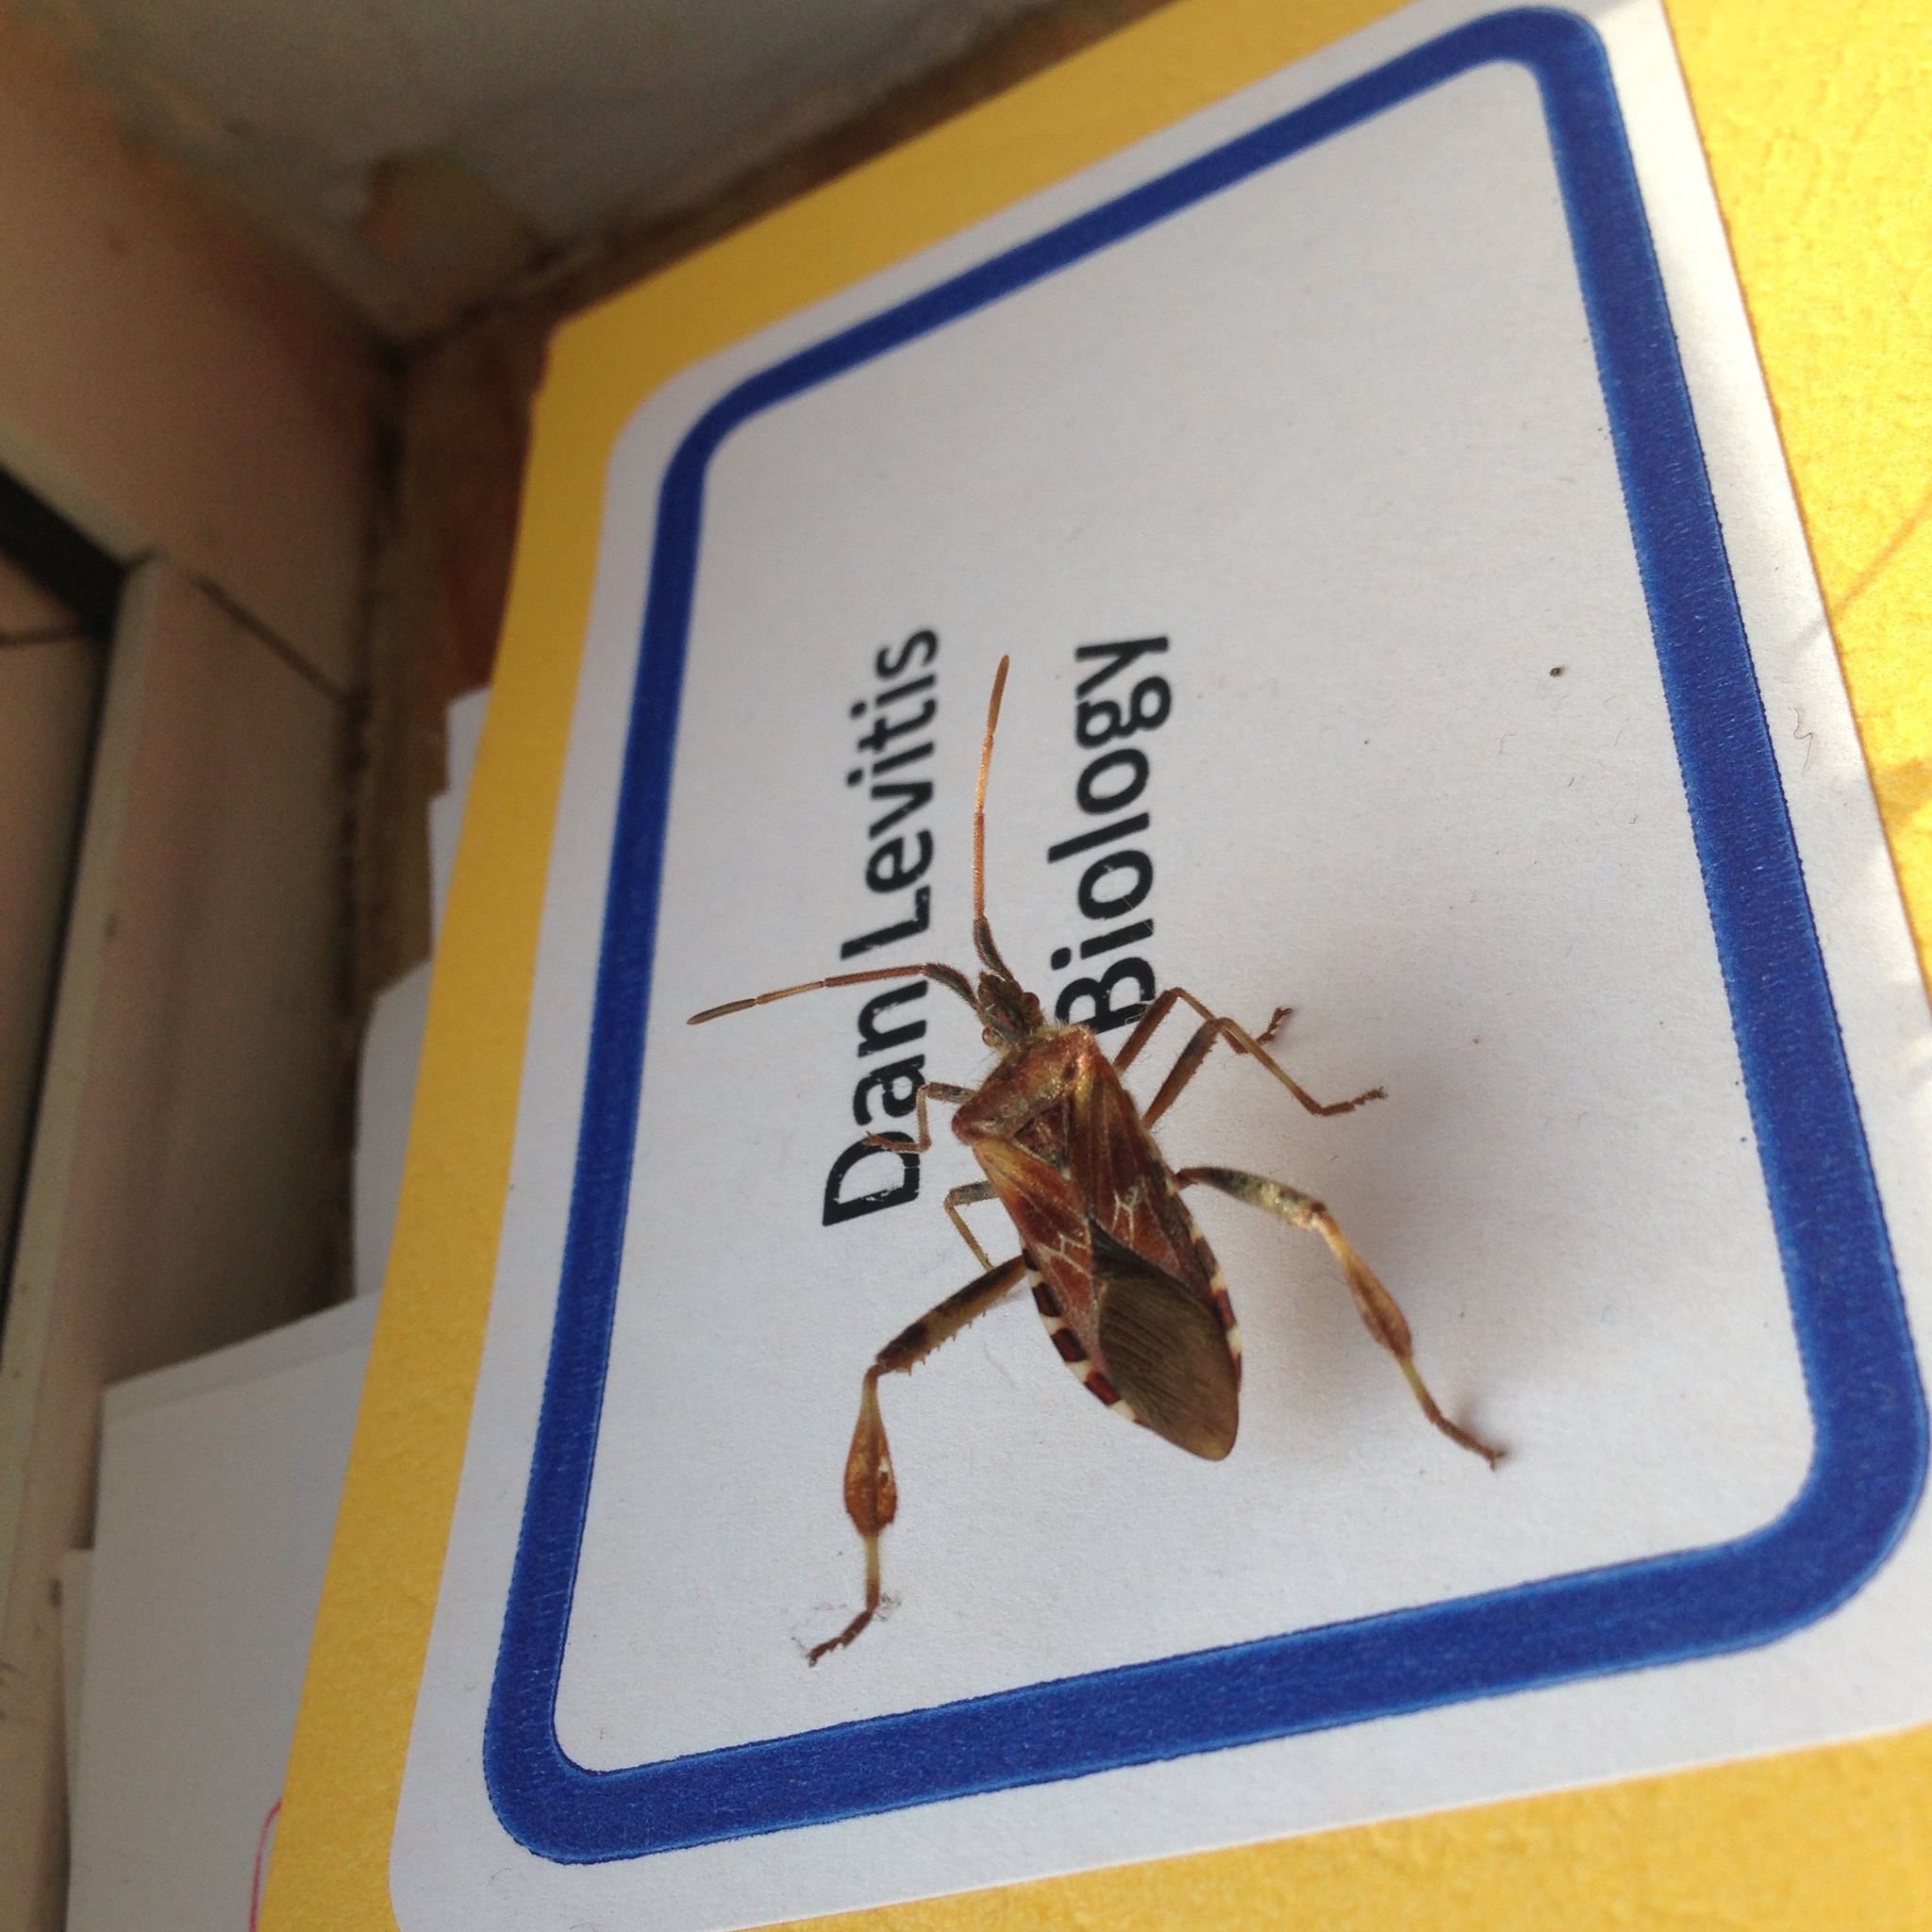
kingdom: Animalia
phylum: Arthropoda
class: Insecta
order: Hemiptera
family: Coreidae
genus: Leptoglossus
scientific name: Leptoglossus occidentalis
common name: Western conifer-seed bug
